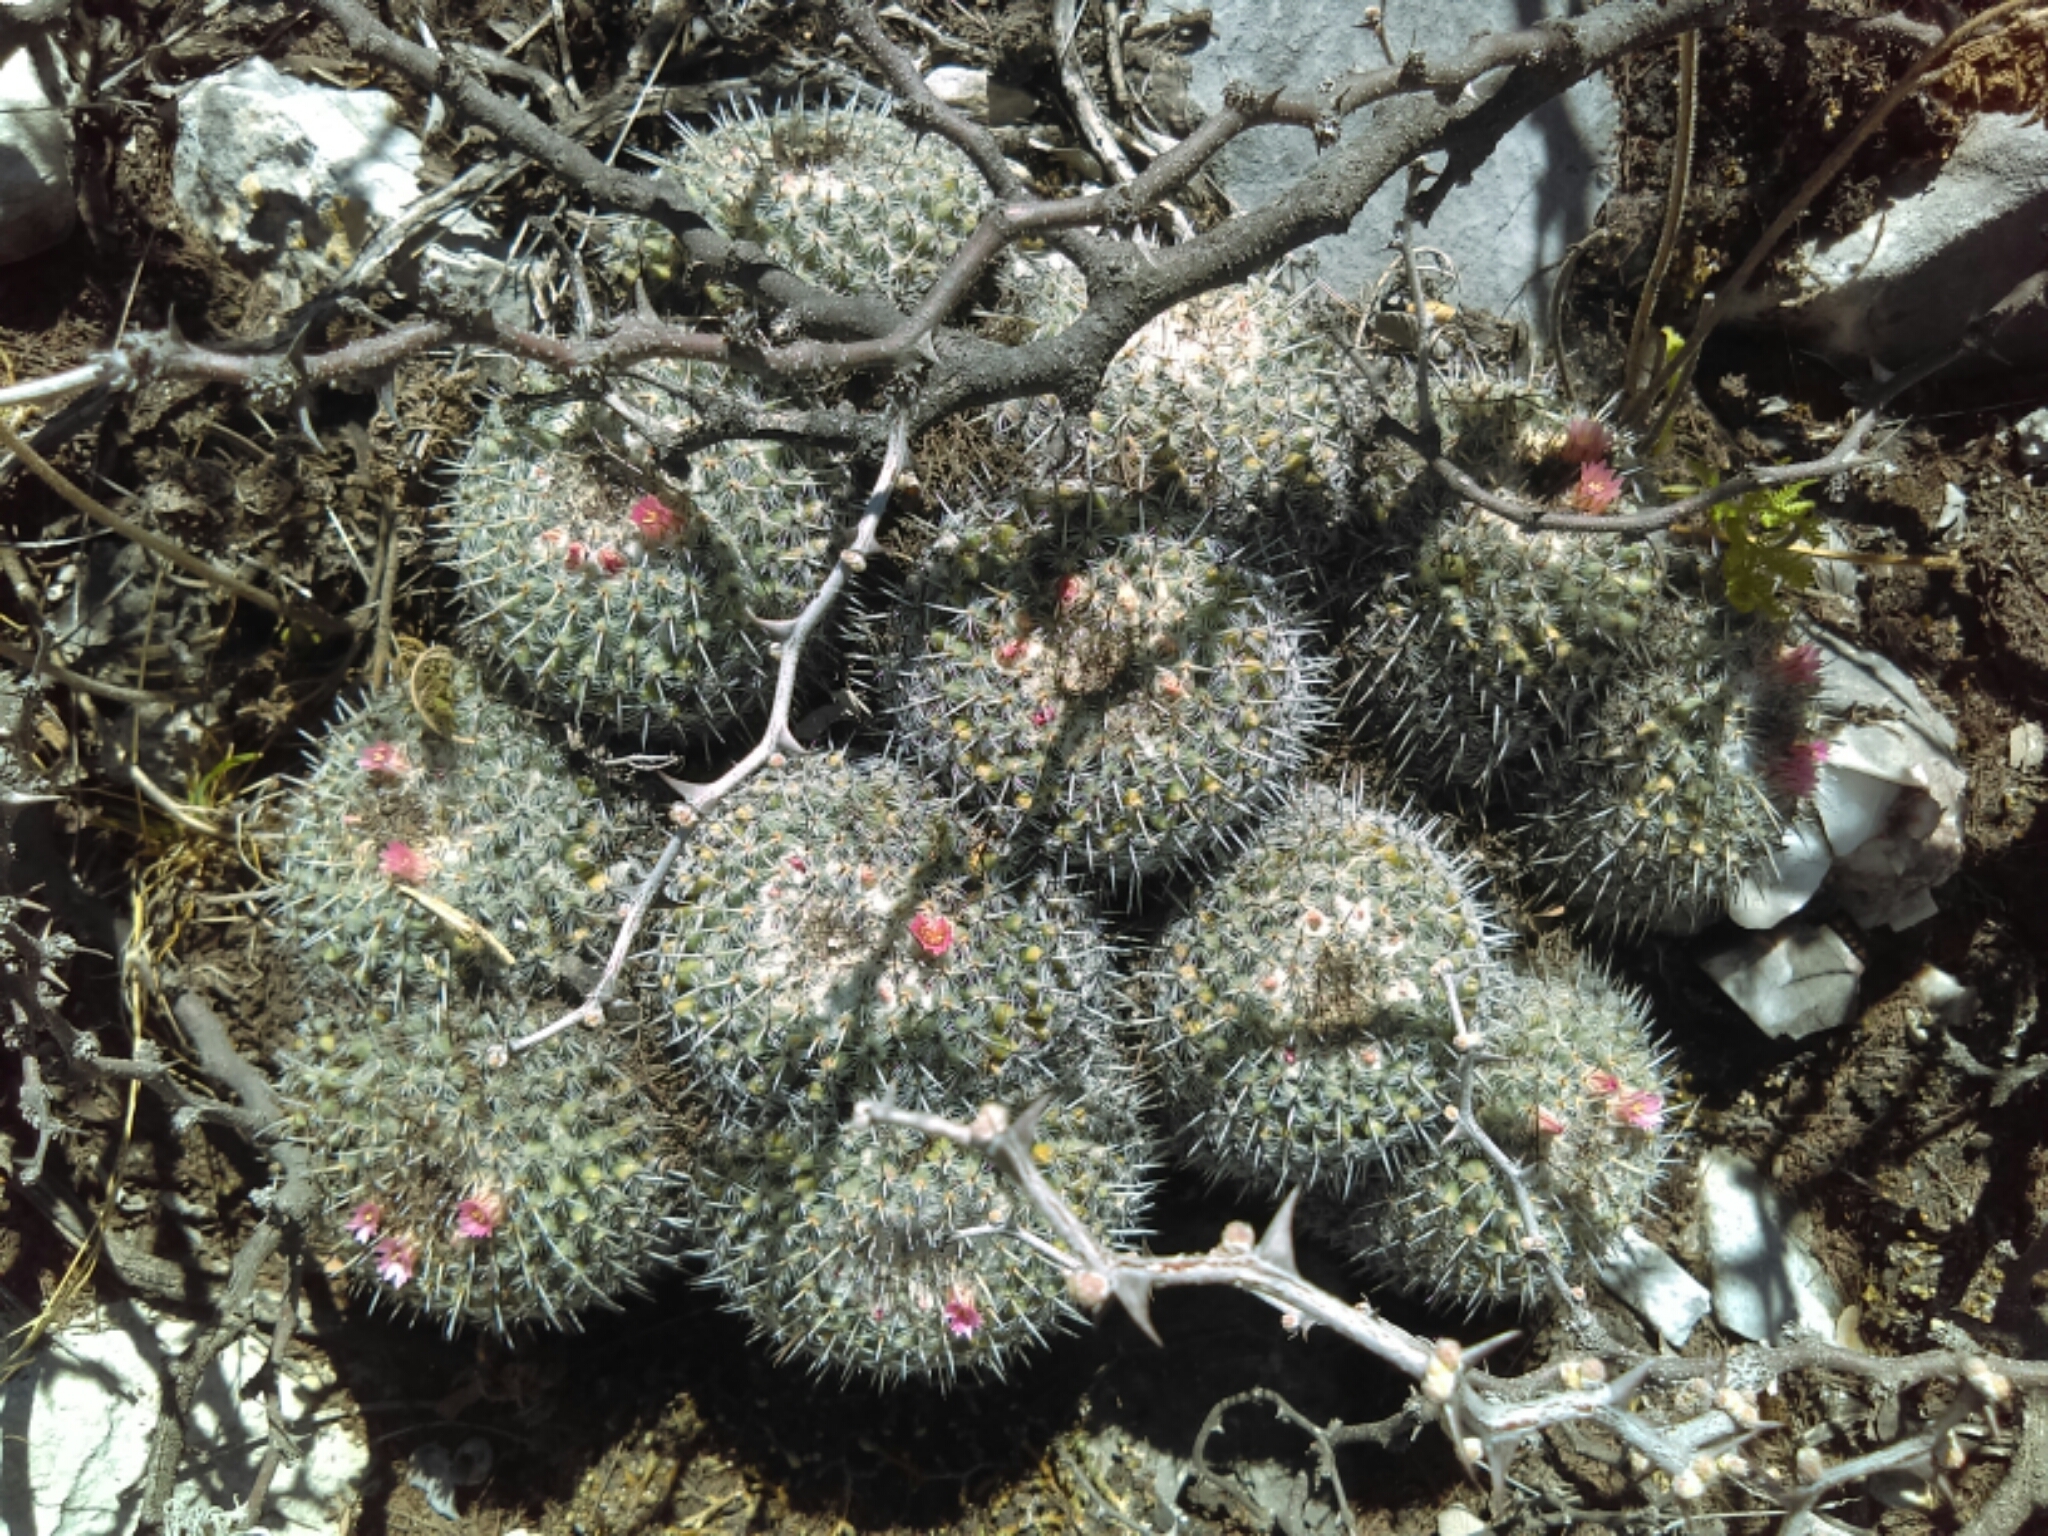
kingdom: Plantae
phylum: Tracheophyta
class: Magnoliopsida
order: Caryophyllales
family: Cactaceae
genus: Mammillaria
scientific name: Mammillaria perbella
